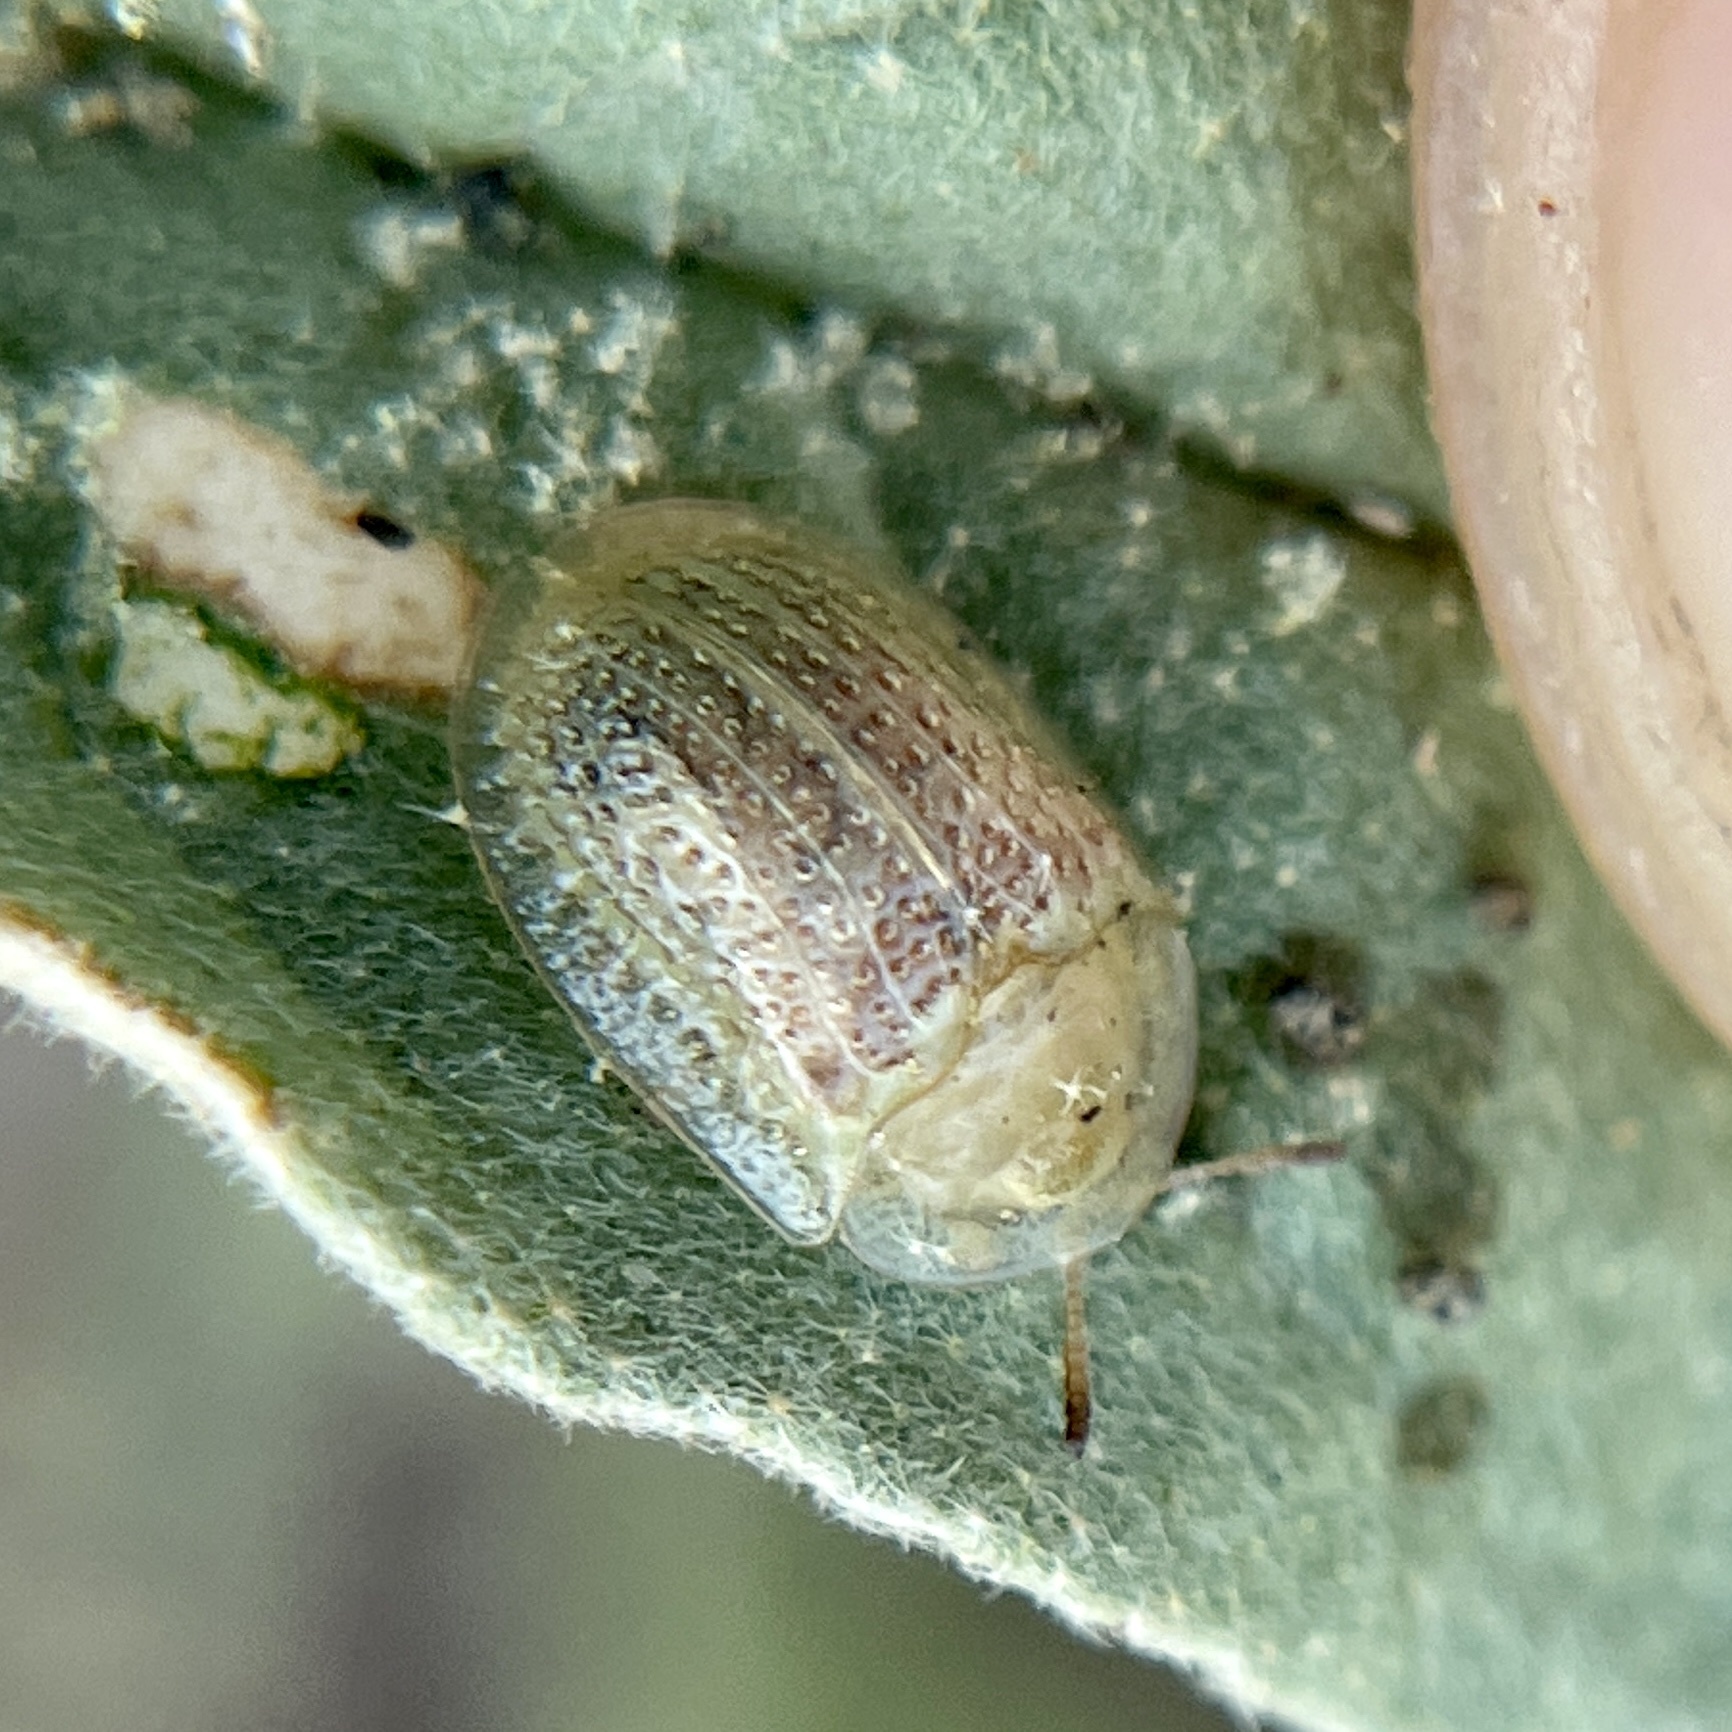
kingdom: Animalia
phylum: Arthropoda
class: Insecta
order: Coleoptera
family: Chrysomelidae
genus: Gratiana
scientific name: Gratiana pallidula
